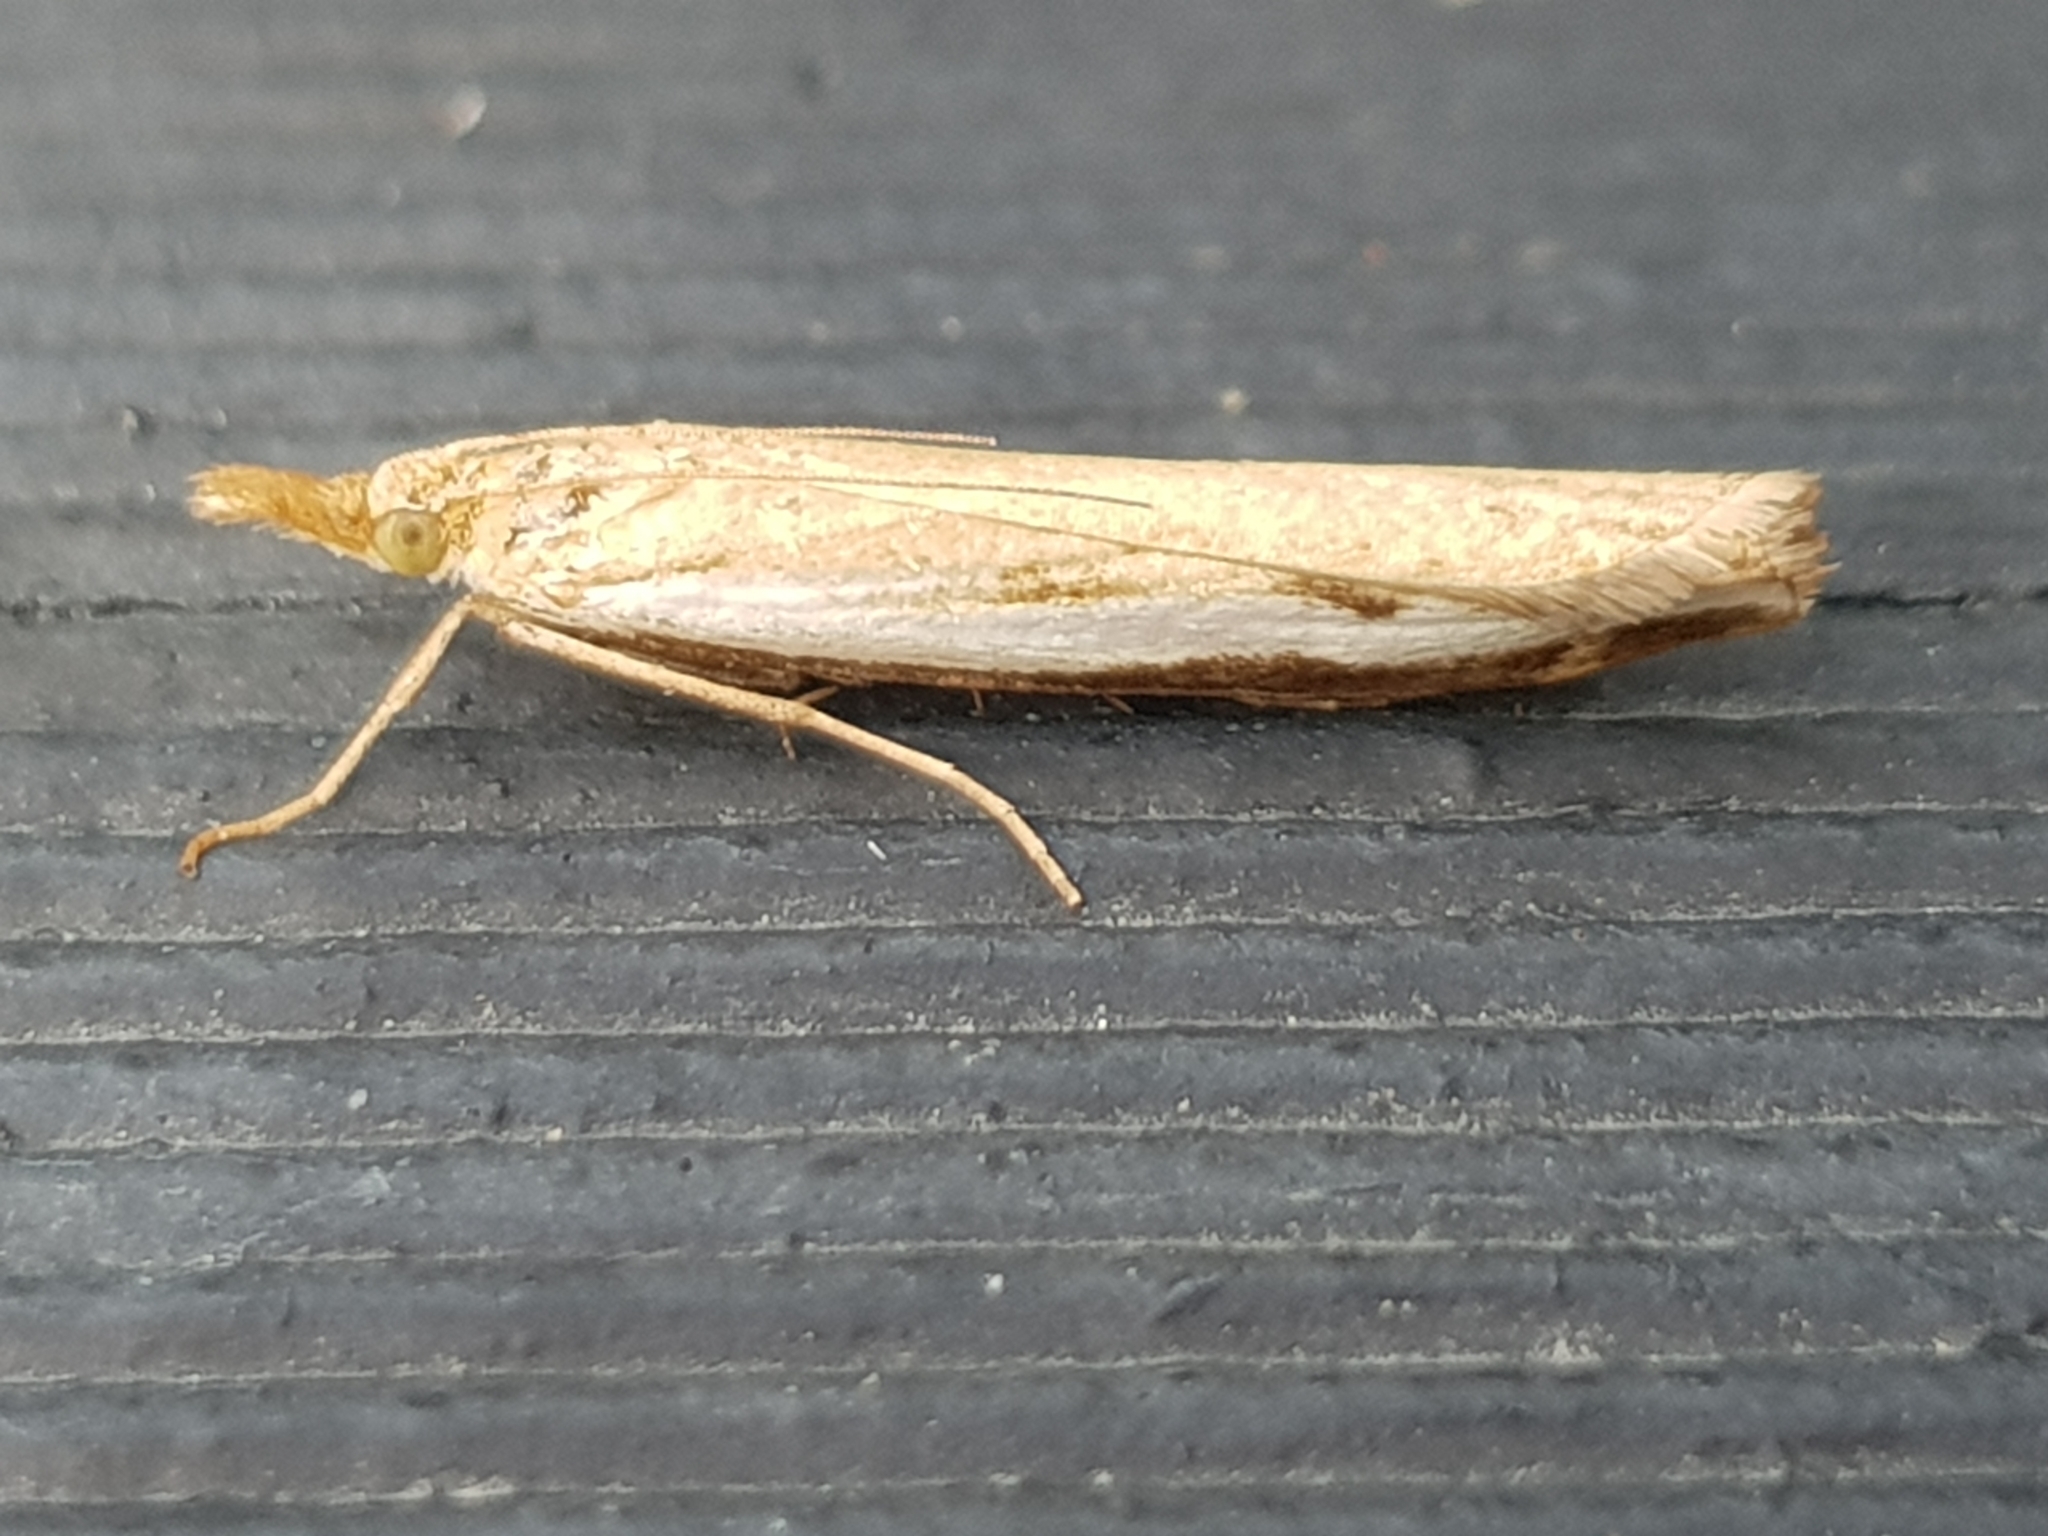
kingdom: Animalia
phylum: Arthropoda
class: Insecta
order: Lepidoptera
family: Crambidae
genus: Orocrambus
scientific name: Orocrambus flexuosellus
